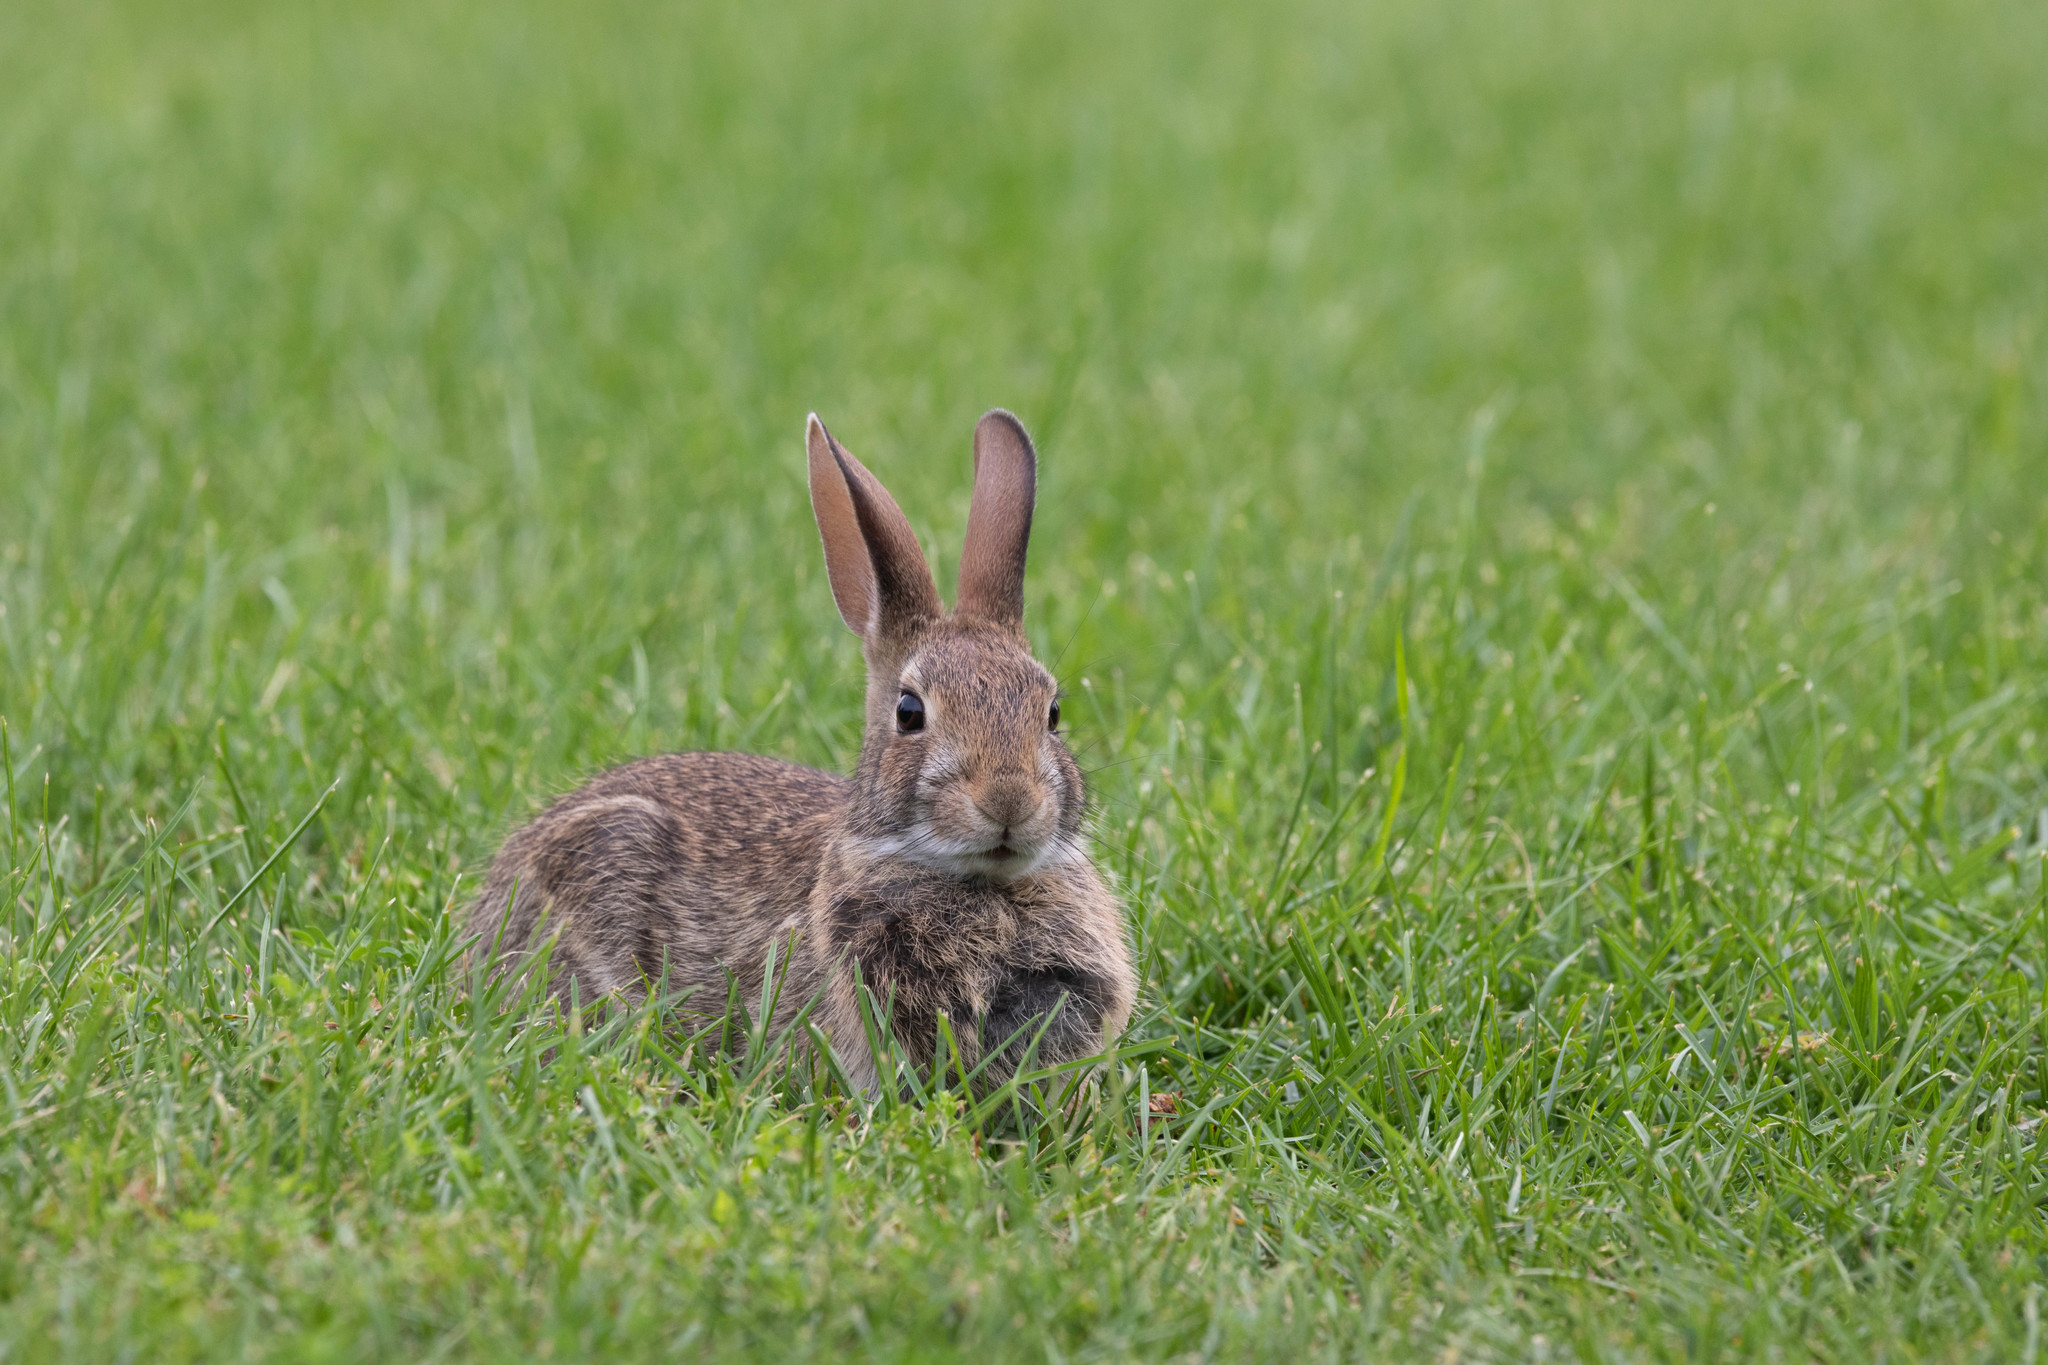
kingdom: Animalia
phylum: Chordata
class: Mammalia
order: Lagomorpha
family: Leporidae
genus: Sylvilagus
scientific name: Sylvilagus floridanus
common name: Eastern cottontail
